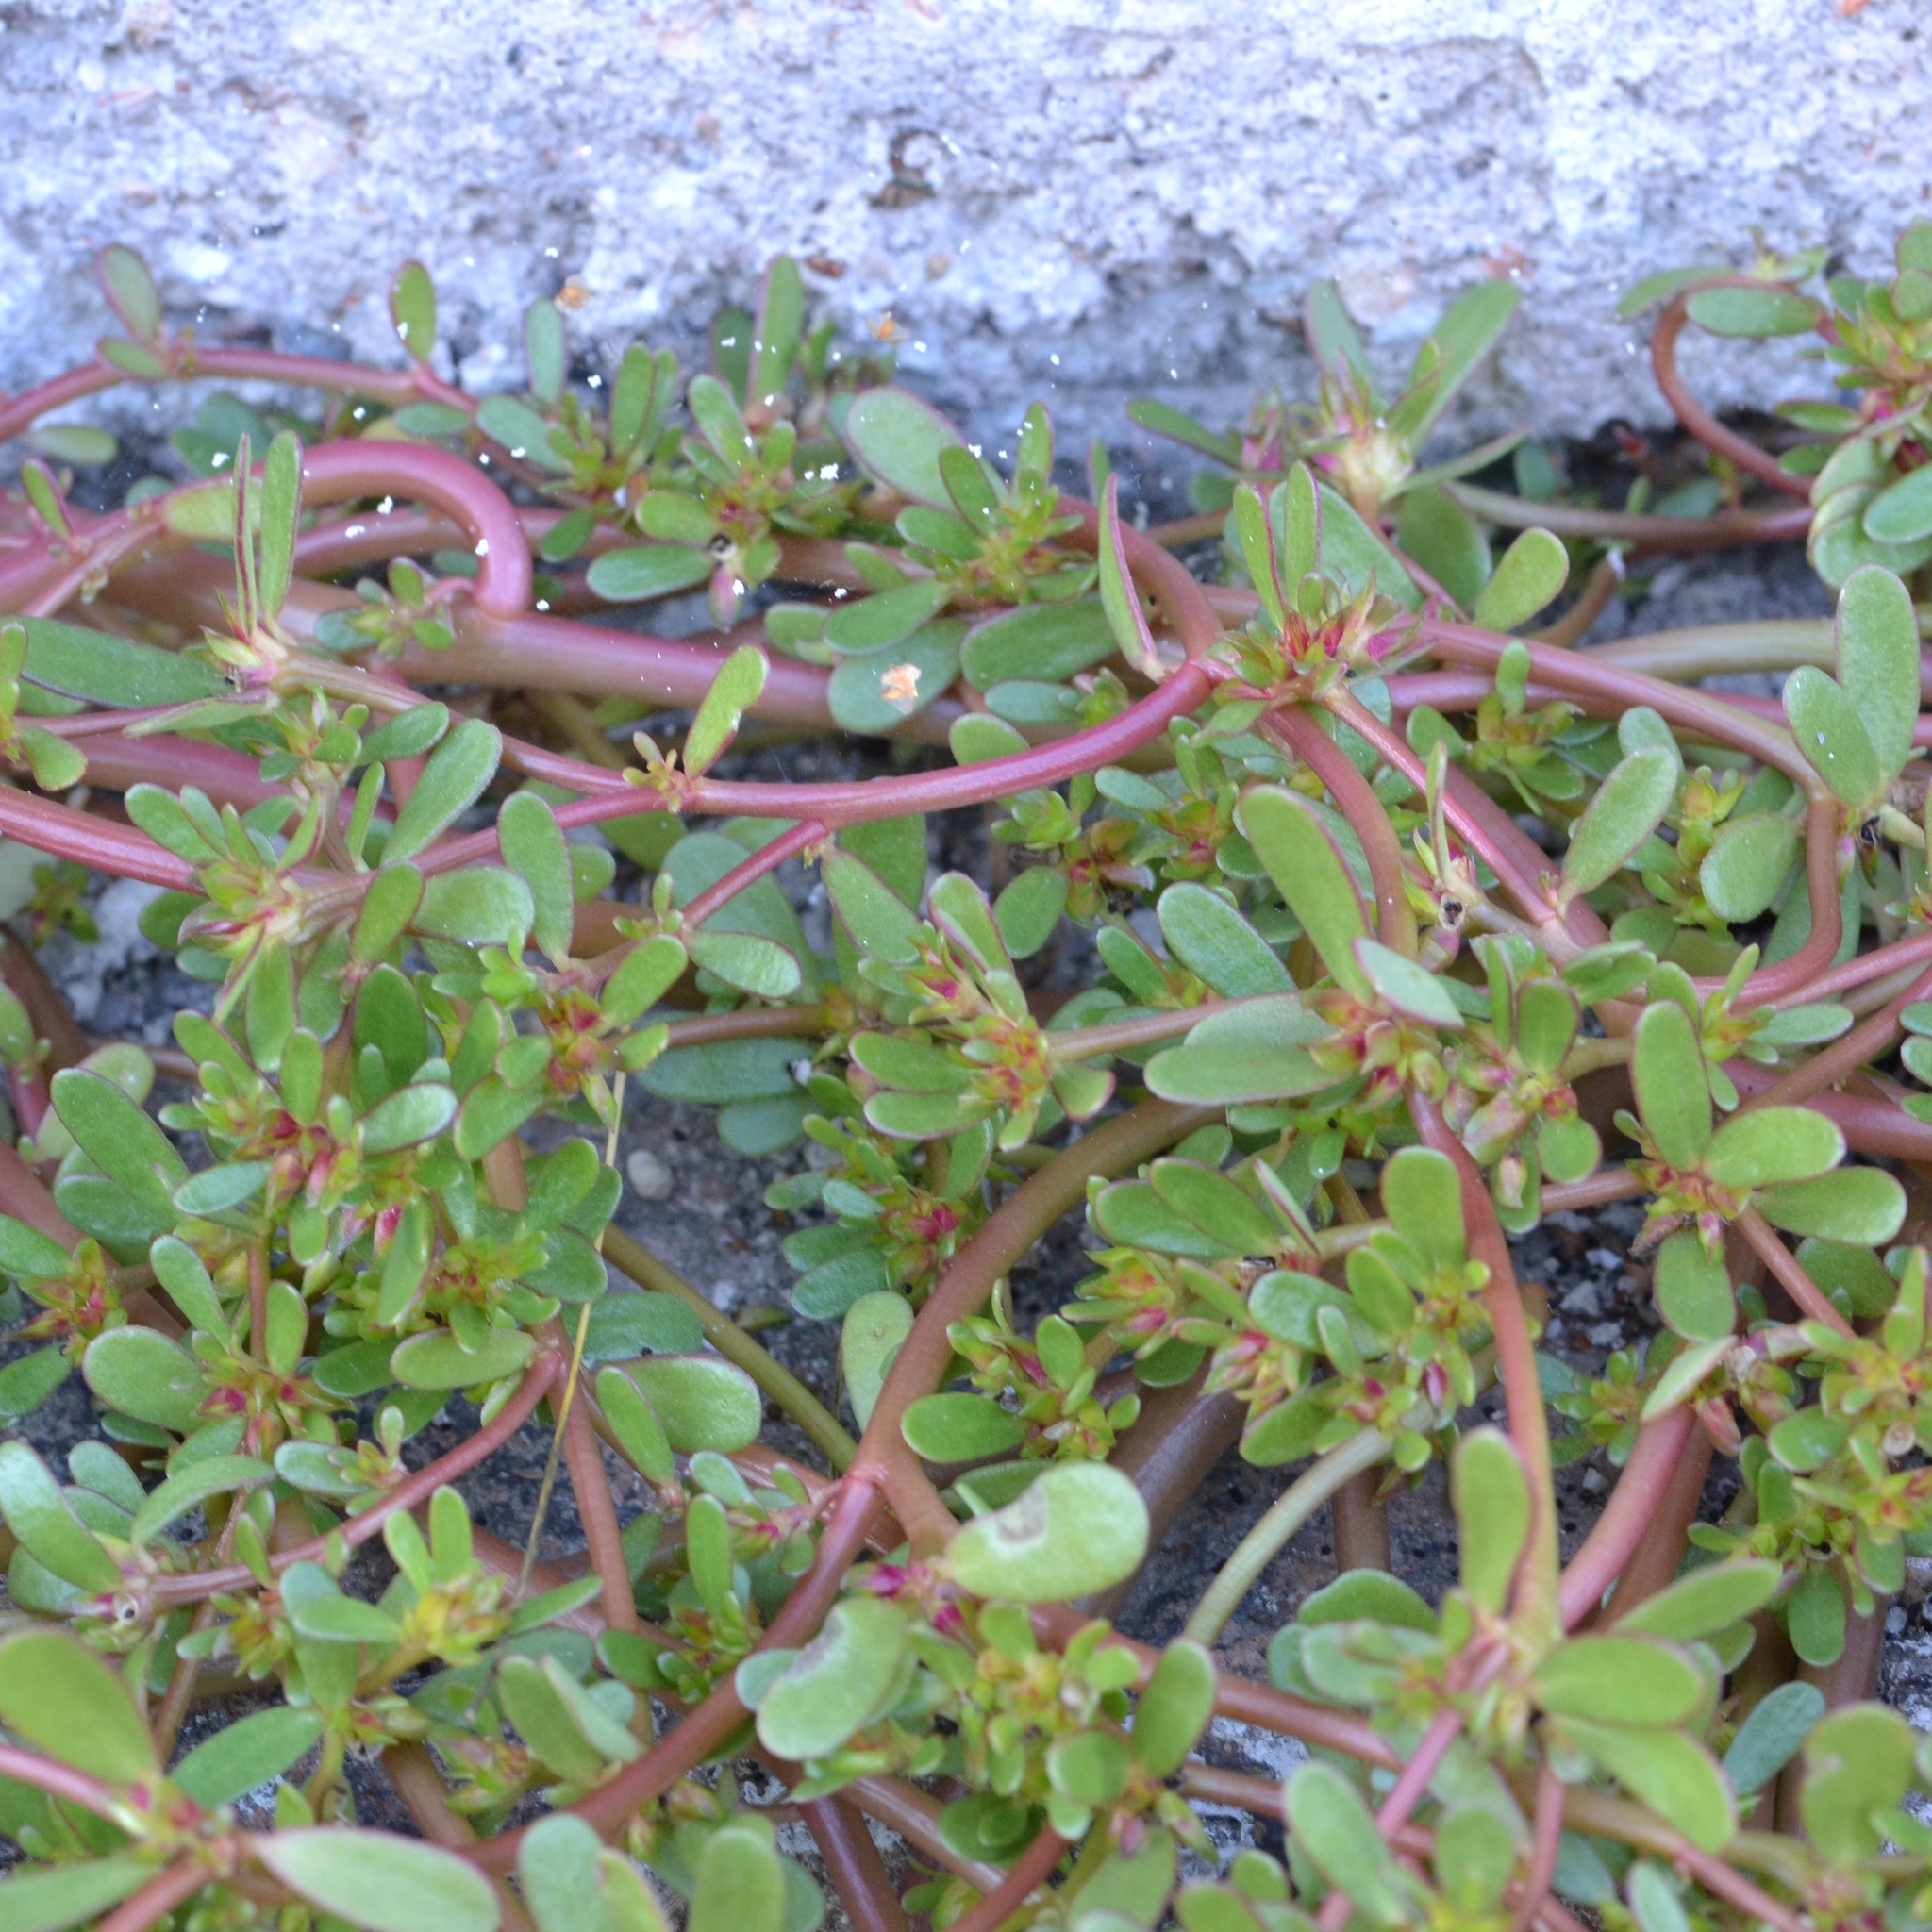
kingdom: Plantae
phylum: Tracheophyta
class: Magnoliopsida
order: Caryophyllales
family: Portulacaceae
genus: Portulaca
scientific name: Portulaca oleracea
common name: Common purslane
